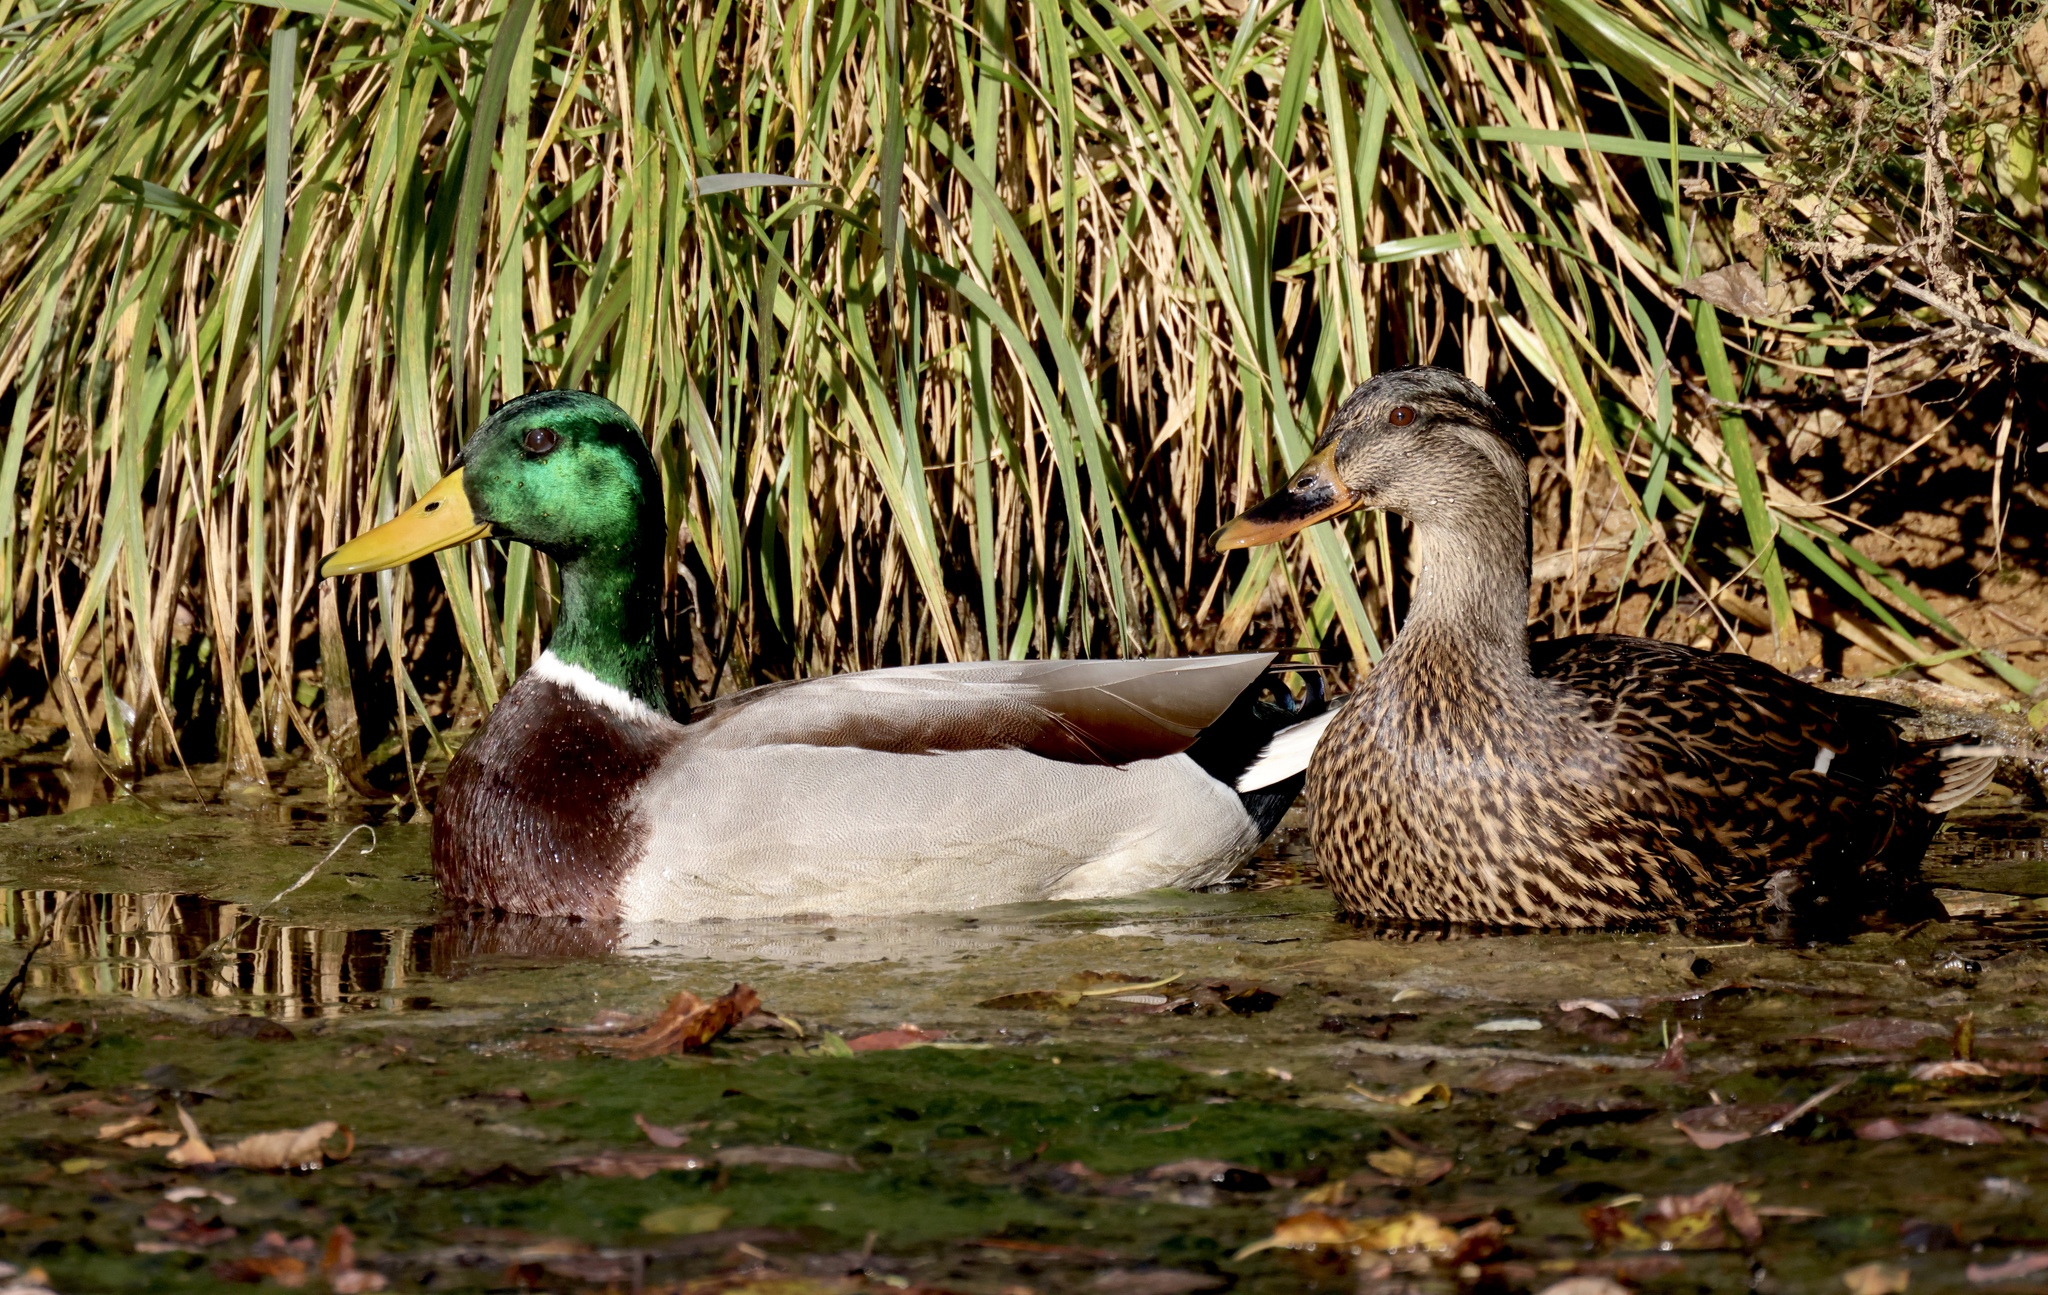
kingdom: Animalia
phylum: Chordata
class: Aves
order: Anseriformes
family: Anatidae
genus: Anas
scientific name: Anas platyrhynchos
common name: Mallard
